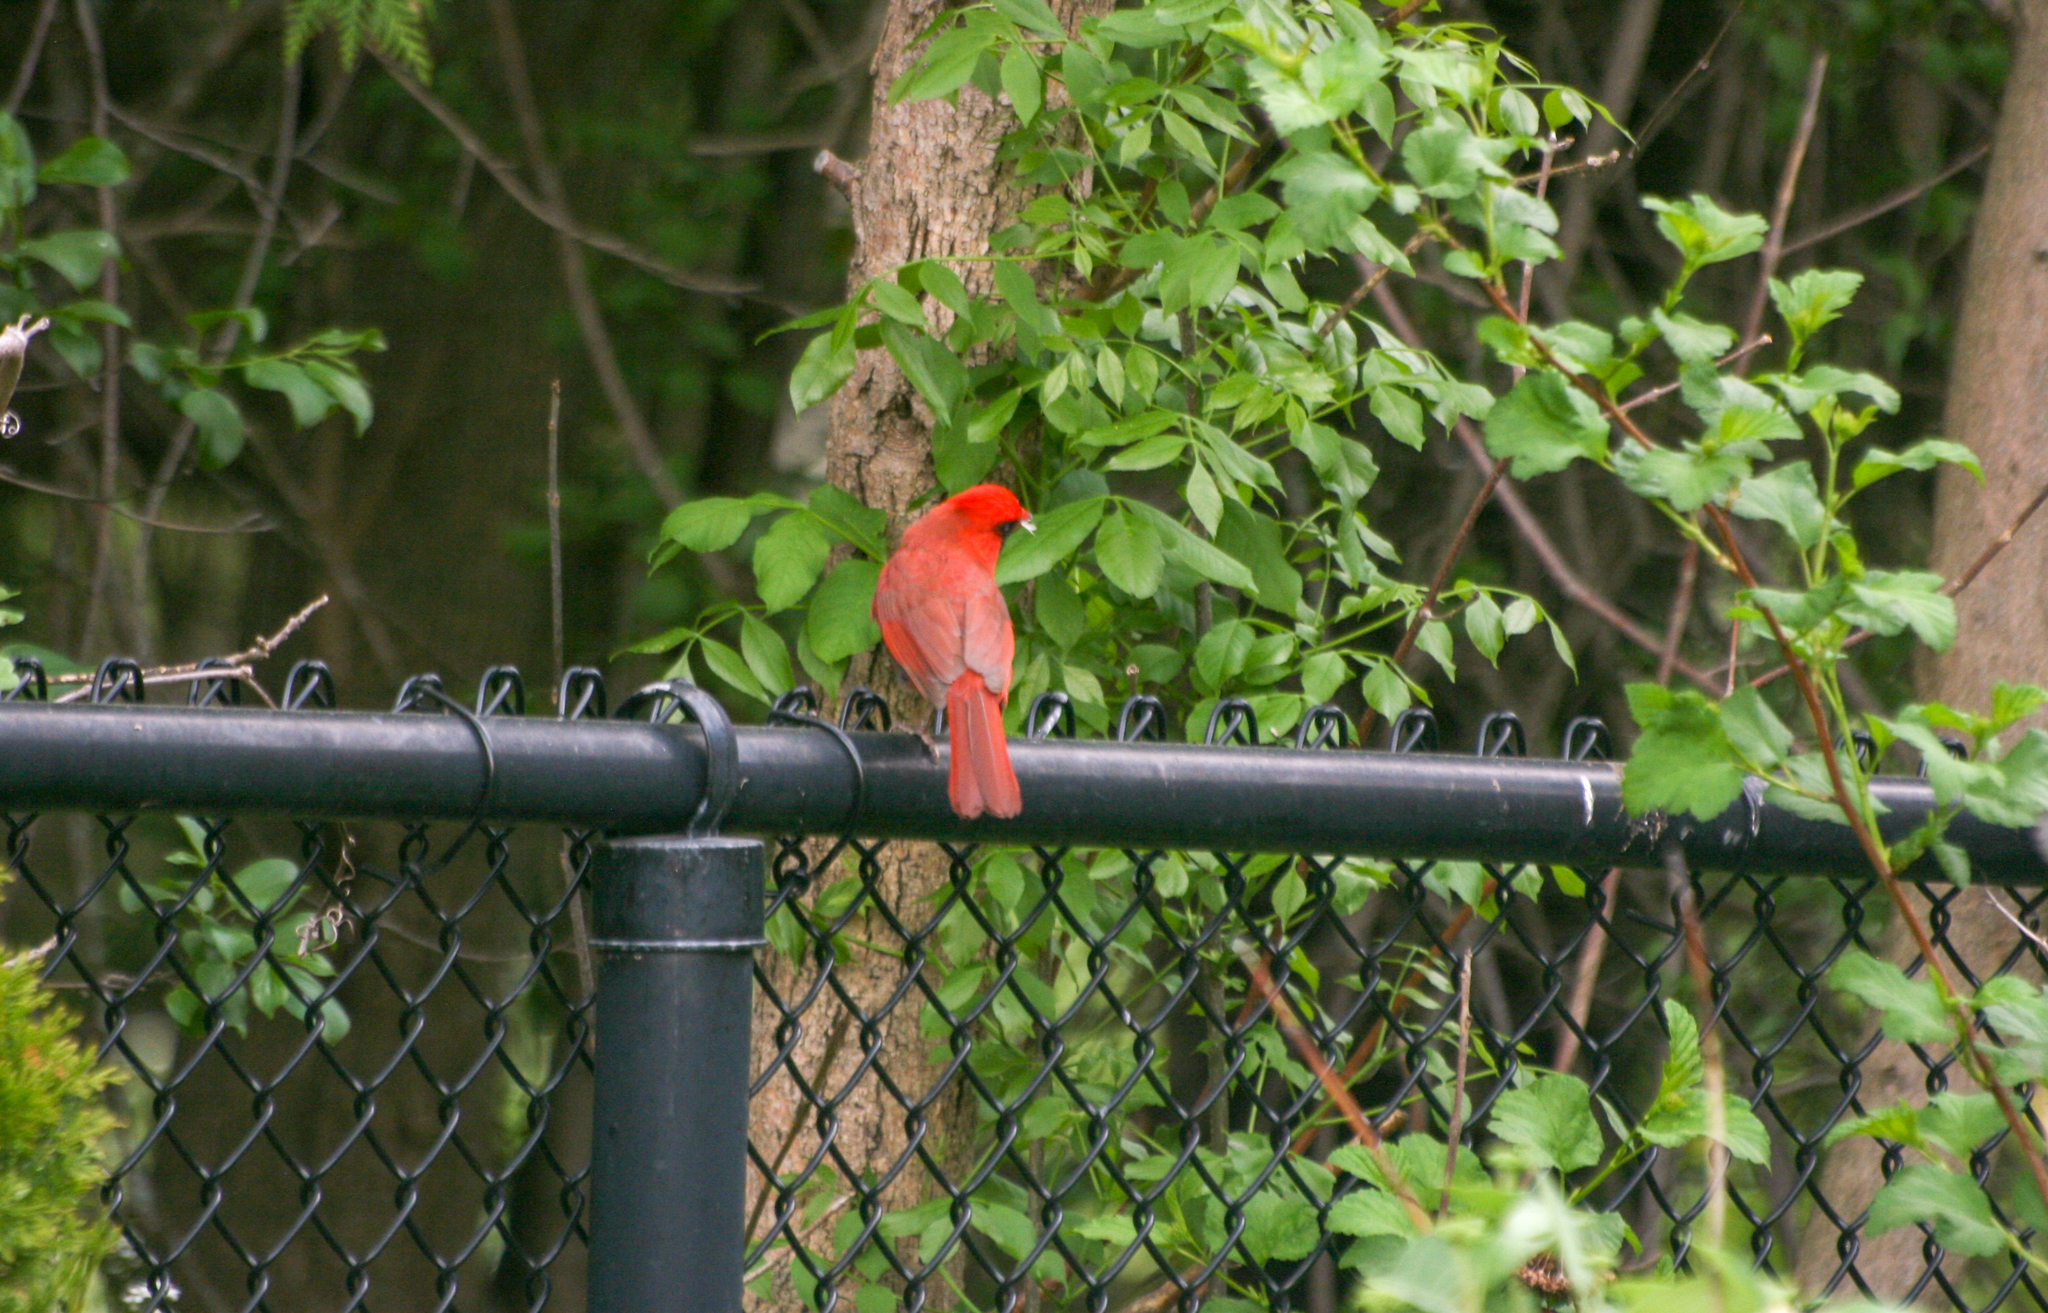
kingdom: Animalia
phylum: Chordata
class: Aves
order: Passeriformes
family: Cardinalidae
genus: Cardinalis
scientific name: Cardinalis cardinalis
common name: Northern cardinal
